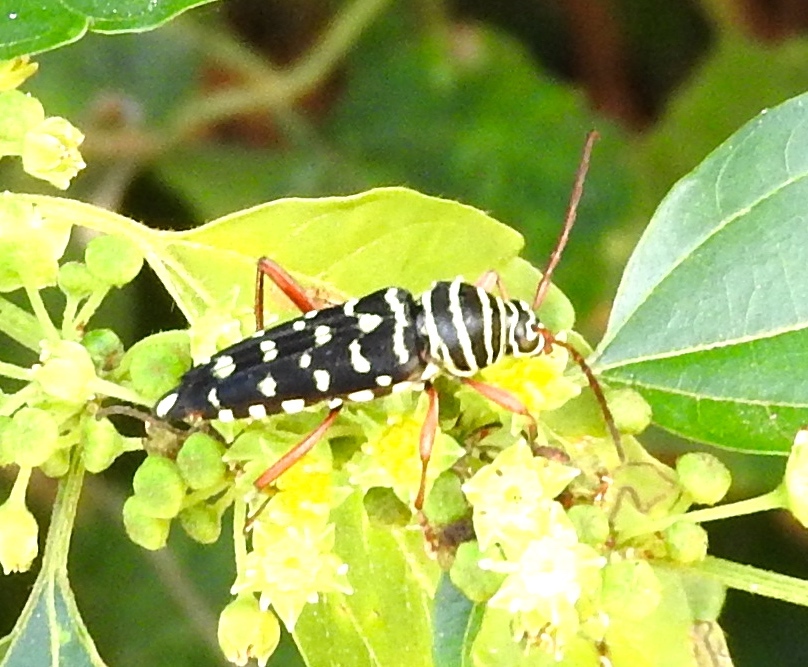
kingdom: Animalia
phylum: Arthropoda
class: Insecta
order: Coleoptera
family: Cerambycidae
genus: Placosternus
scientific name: Placosternus
